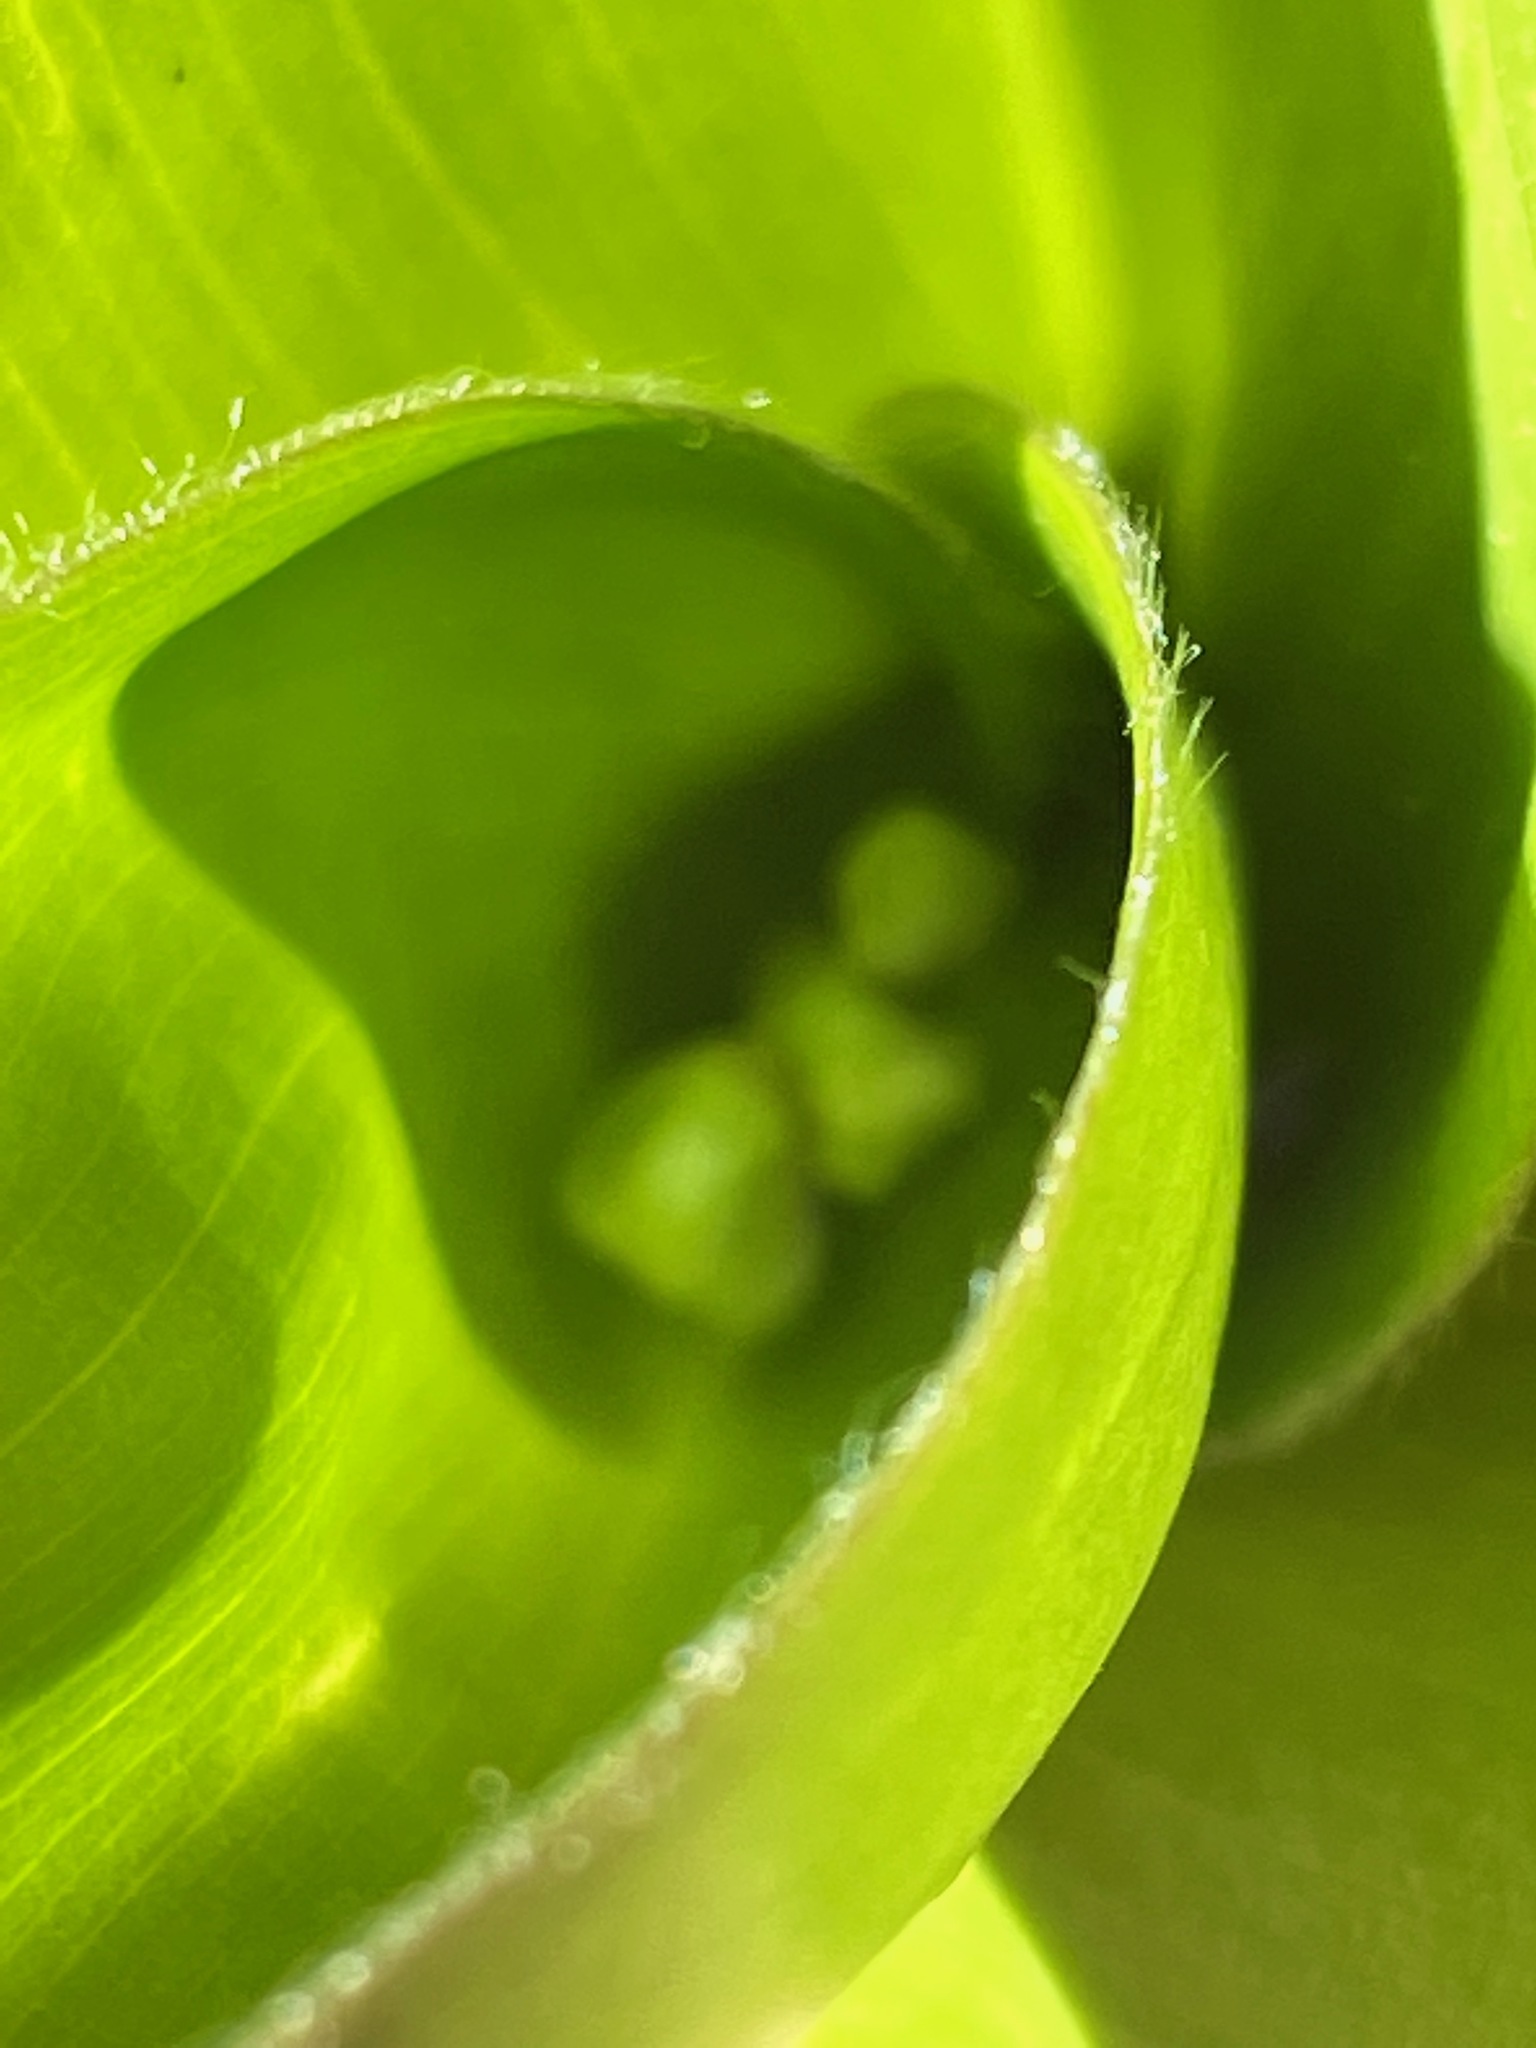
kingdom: Plantae
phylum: Tracheophyta
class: Liliopsida
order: Liliales
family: Liliaceae
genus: Clintonia
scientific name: Clintonia borealis
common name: Yellow clintonia
